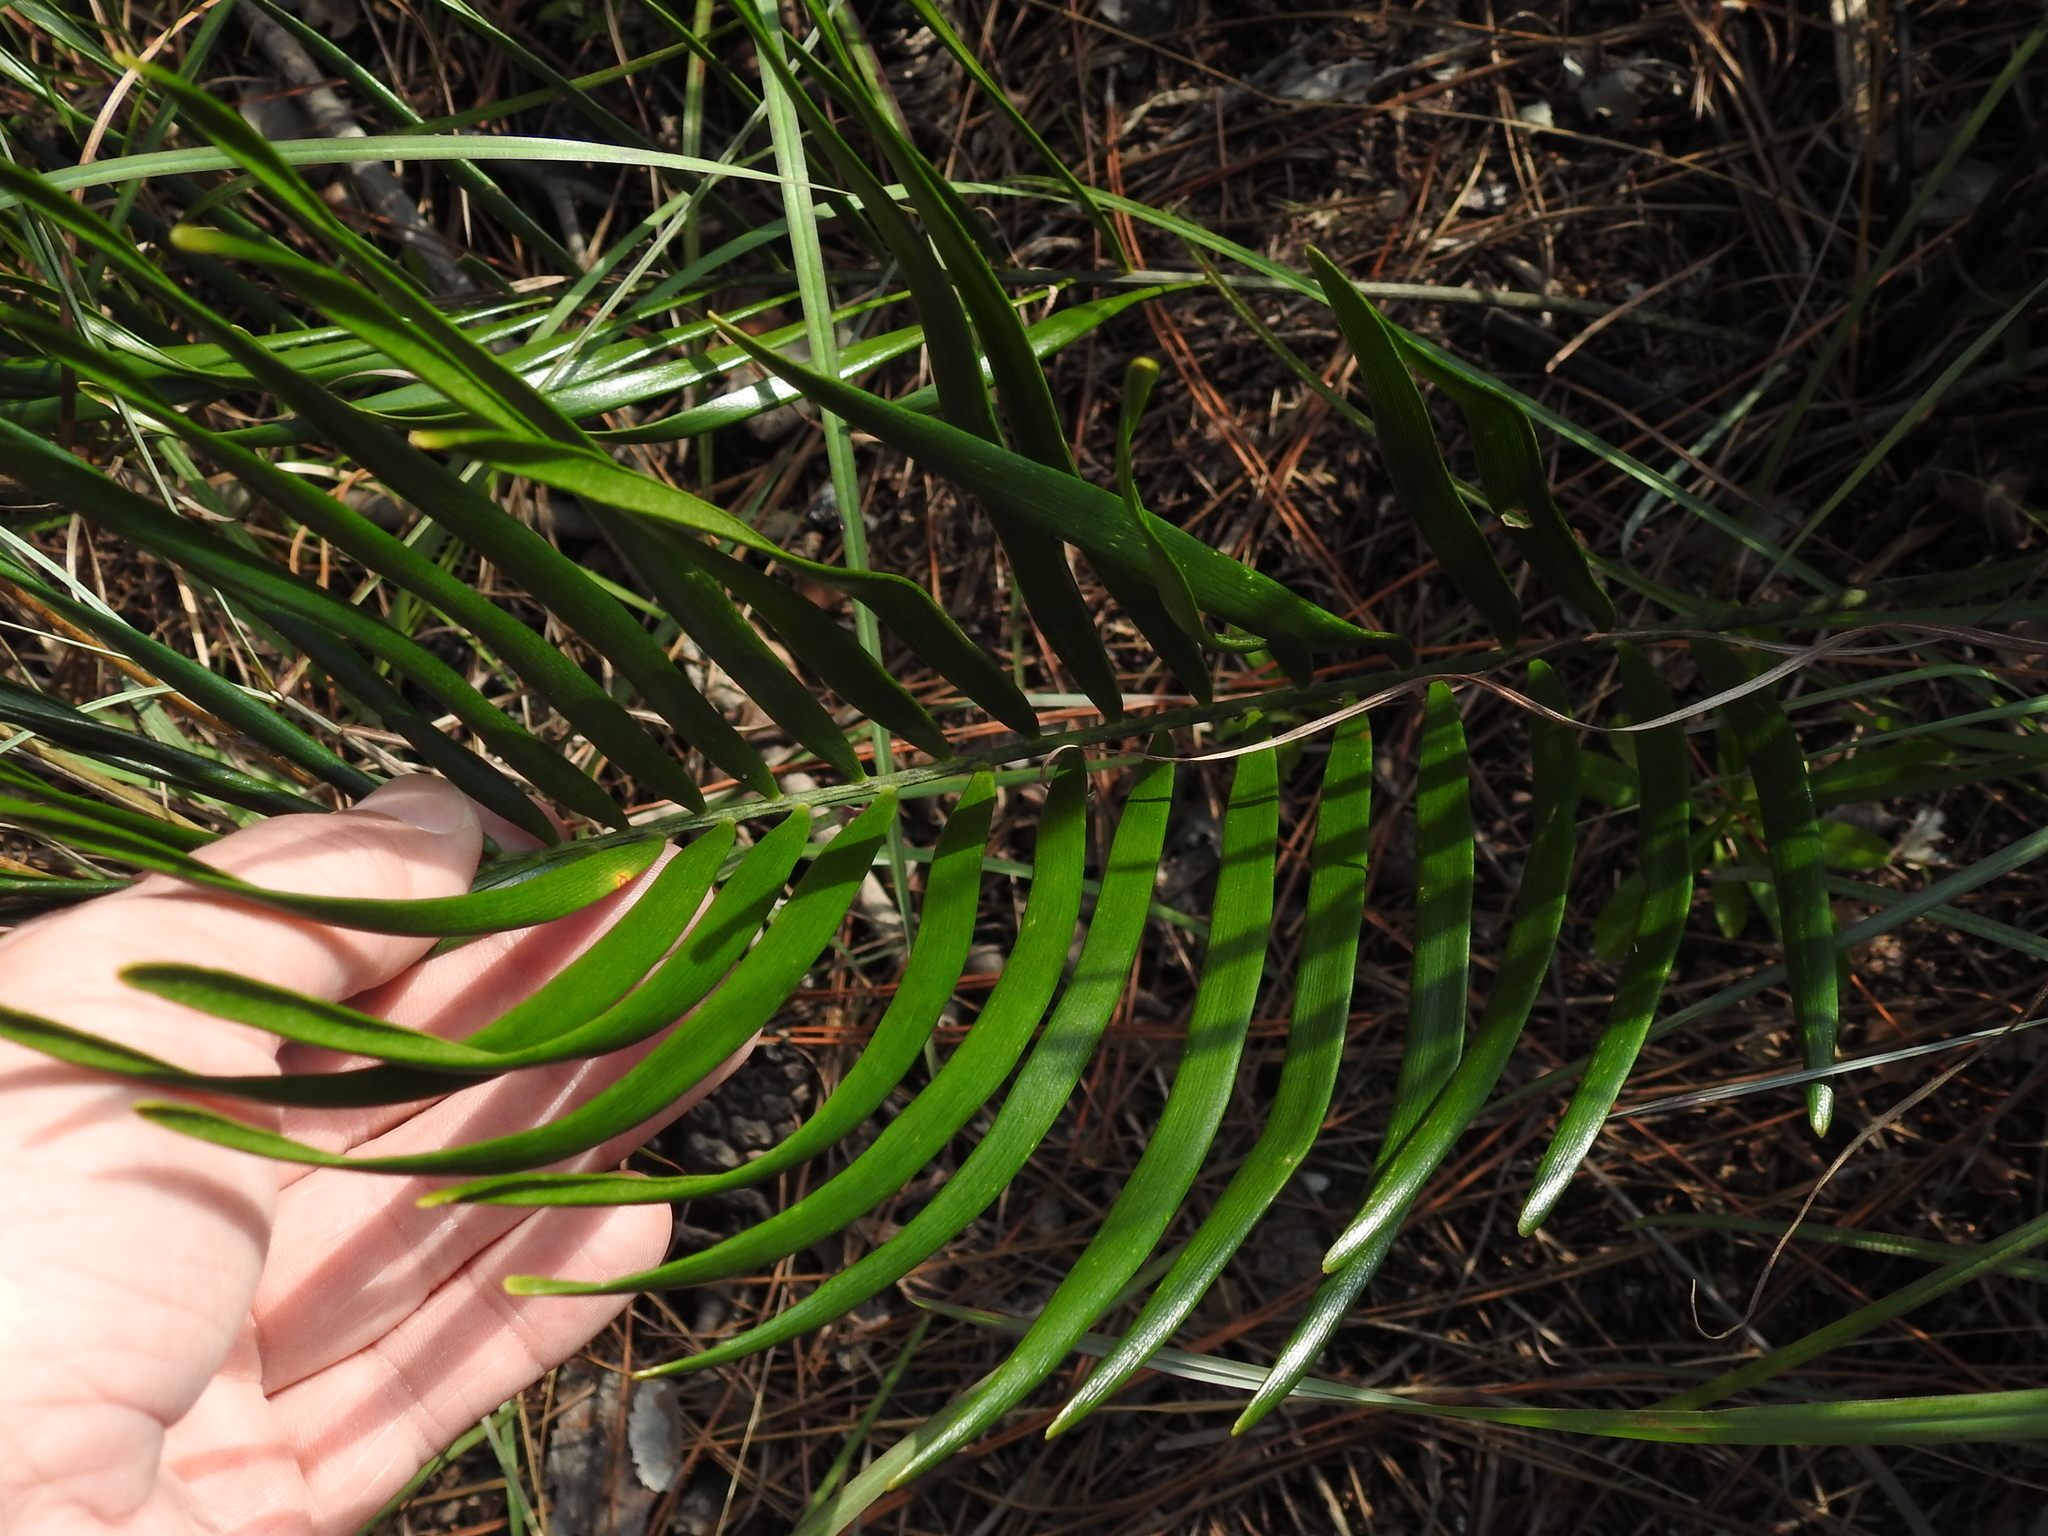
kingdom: Plantae
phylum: Tracheophyta
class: Cycadopsida
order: Cycadales
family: Zamiaceae
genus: Zamia
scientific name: Zamia integrifolia
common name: Florida arrowroot
